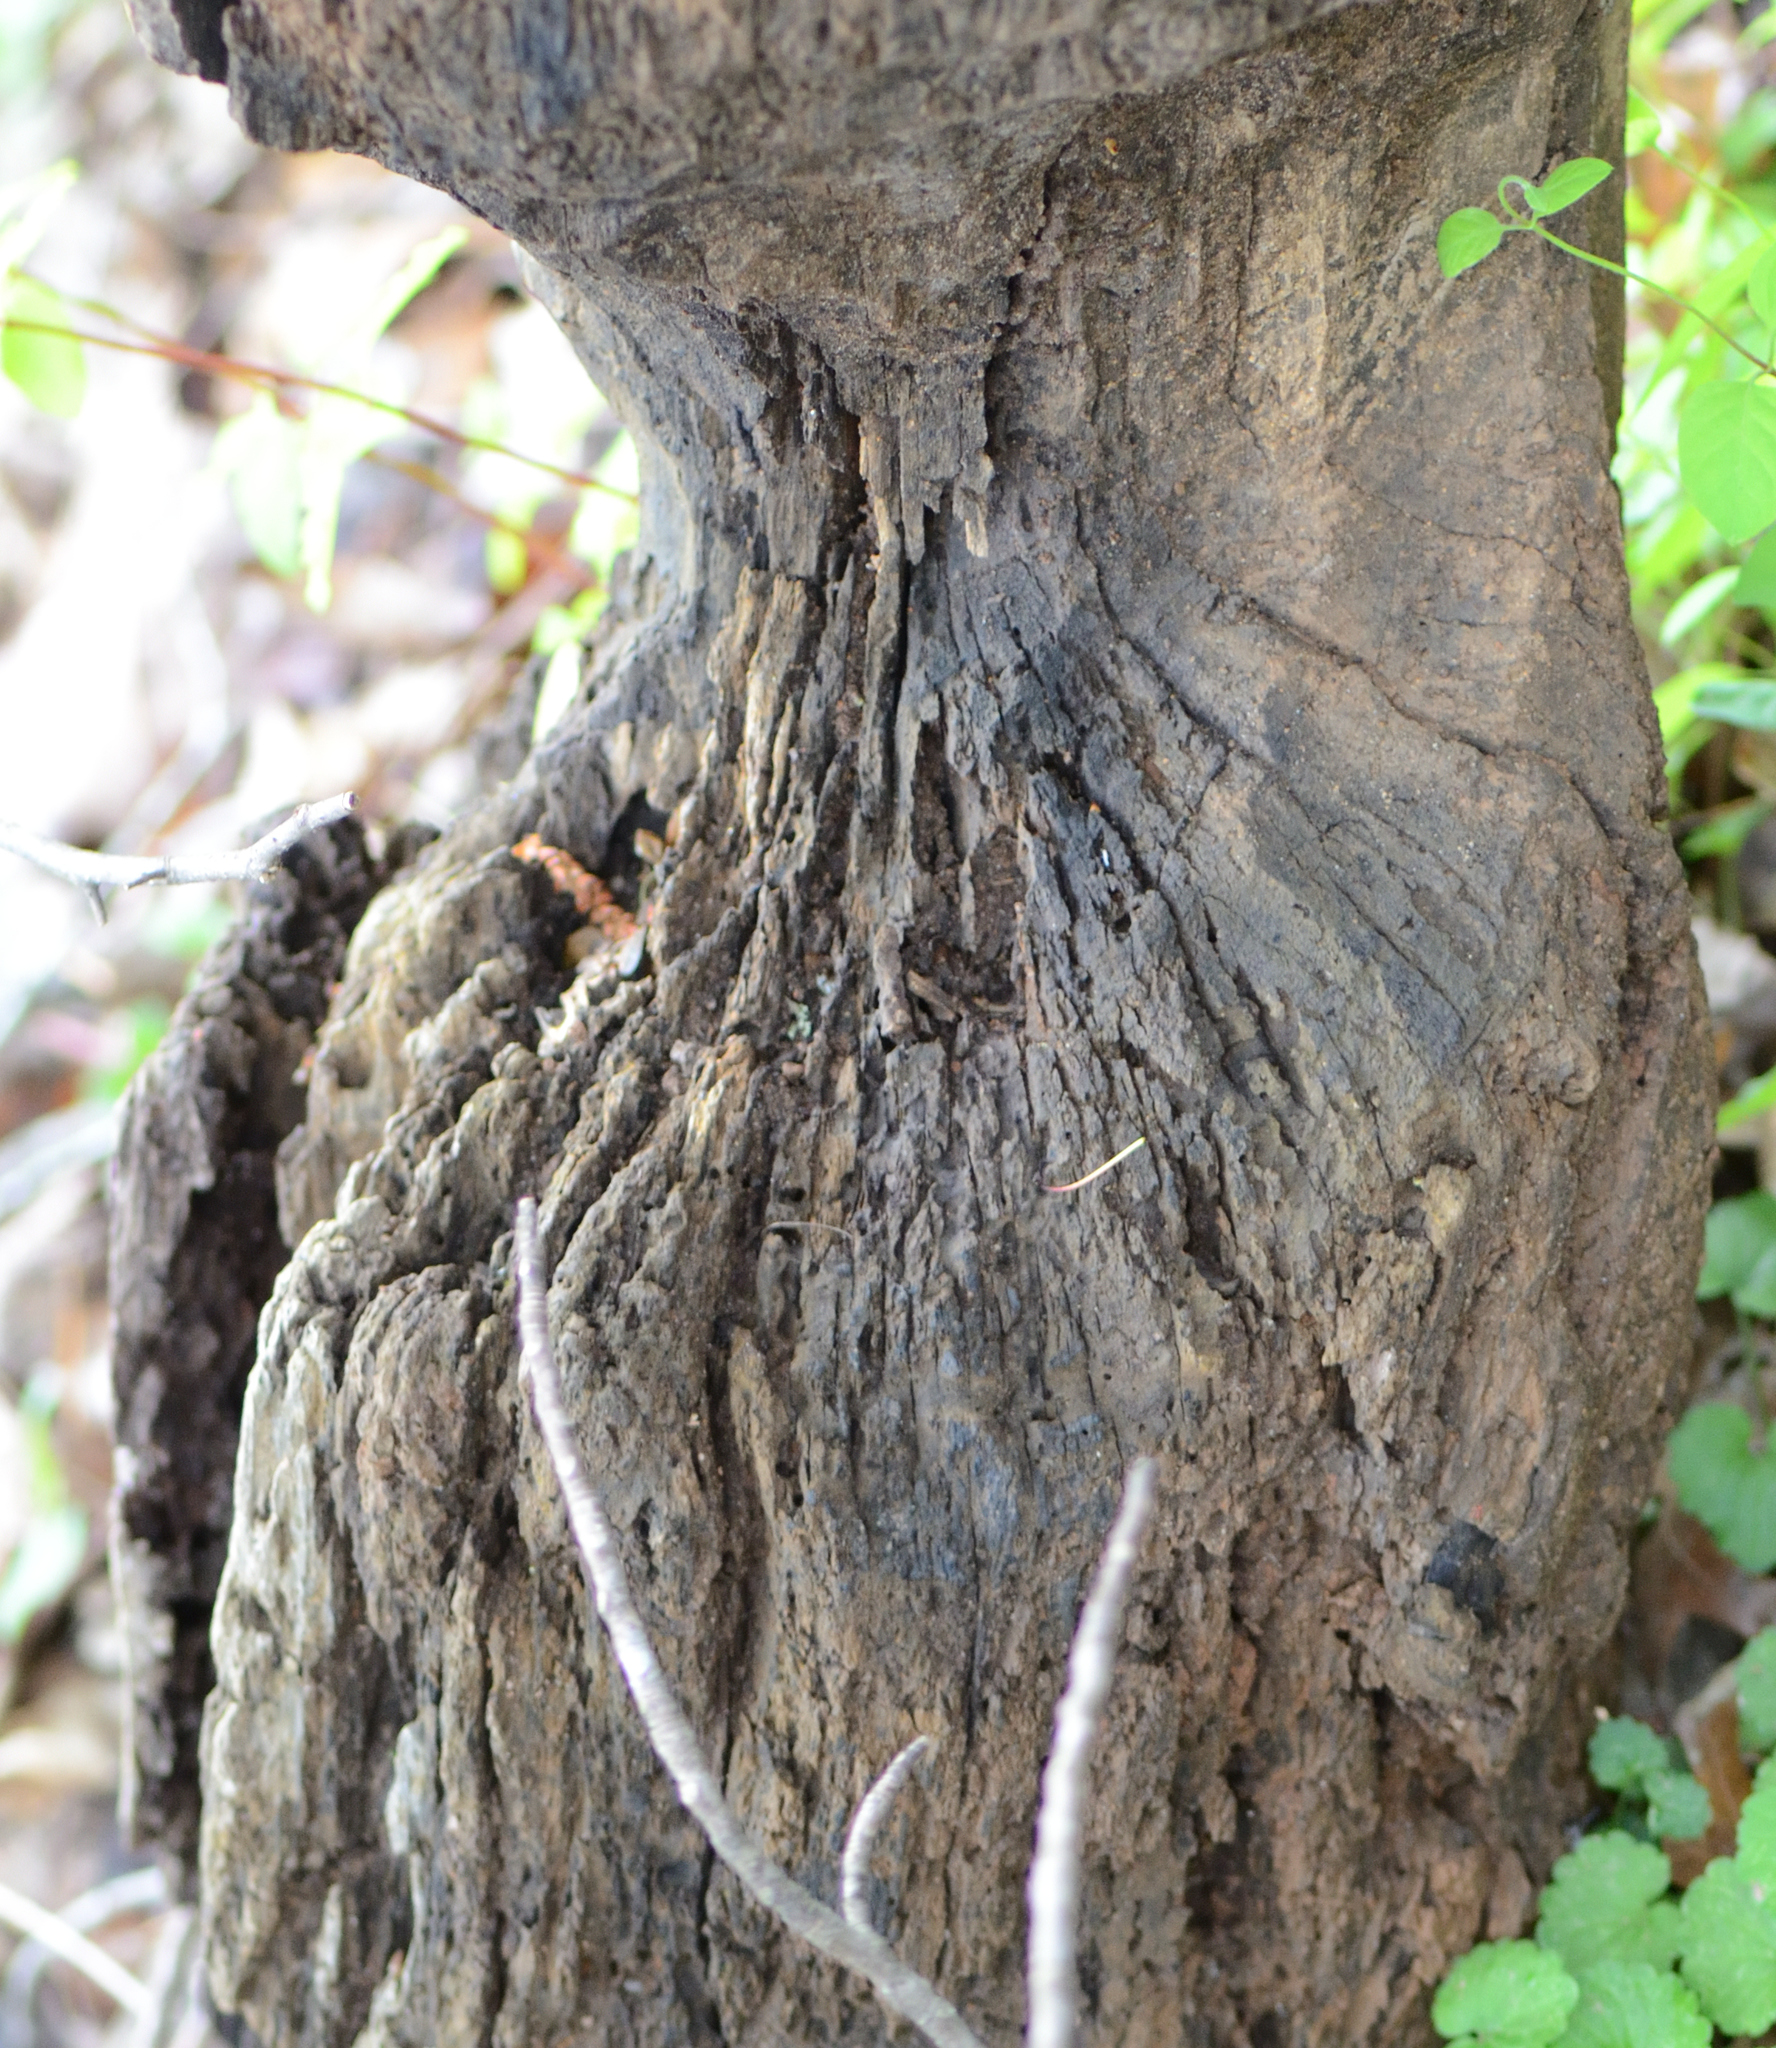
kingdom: Animalia
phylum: Chordata
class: Mammalia
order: Rodentia
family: Castoridae
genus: Castor
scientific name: Castor canadensis
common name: American beaver
